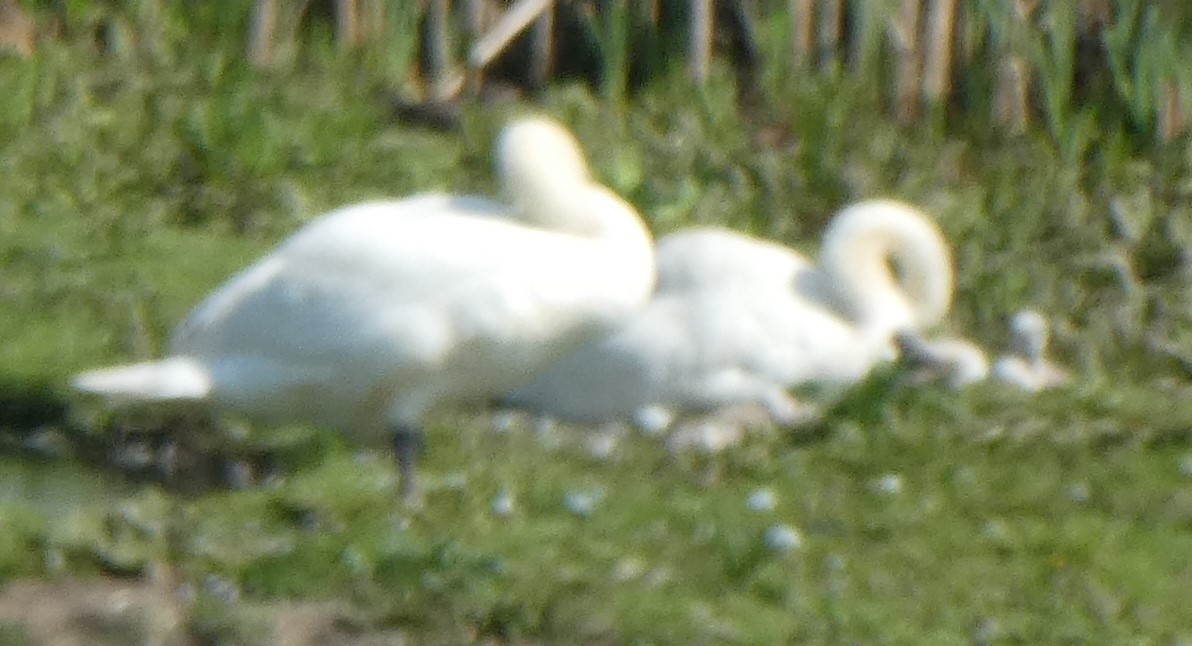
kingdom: Animalia
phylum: Chordata
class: Aves
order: Anseriformes
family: Anatidae
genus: Cygnus
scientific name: Cygnus olor
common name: Mute swan
